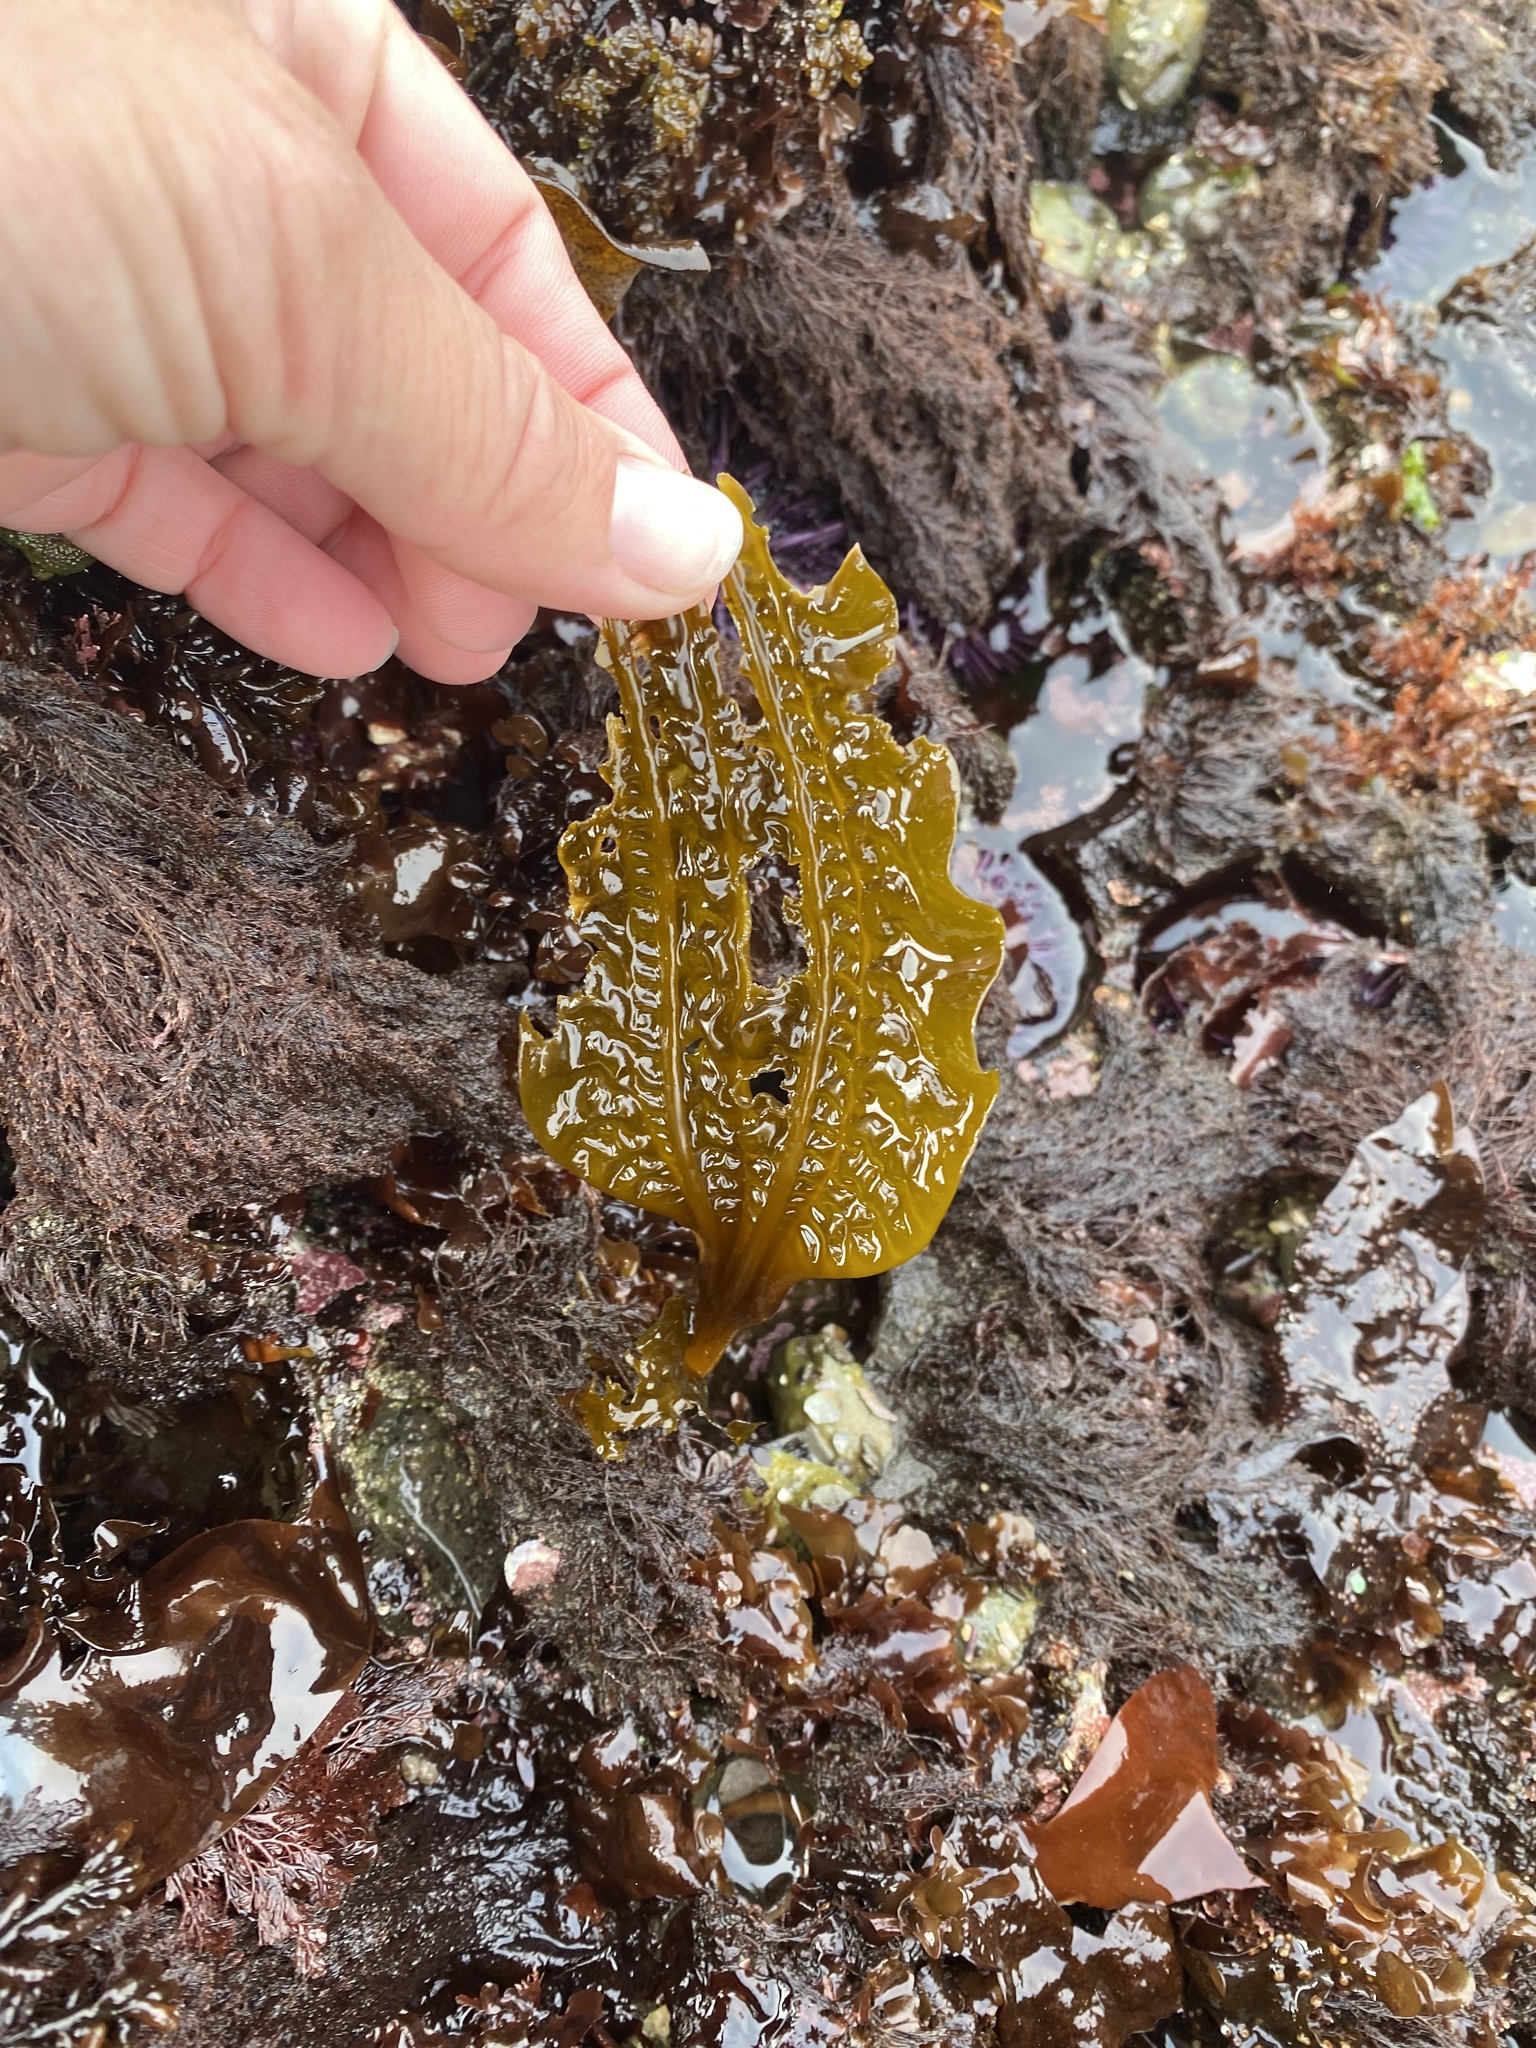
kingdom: Chromista
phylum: Ochrophyta
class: Phaeophyceae
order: Laminariales
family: Costariaceae
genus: Costaria
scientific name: Costaria costata
